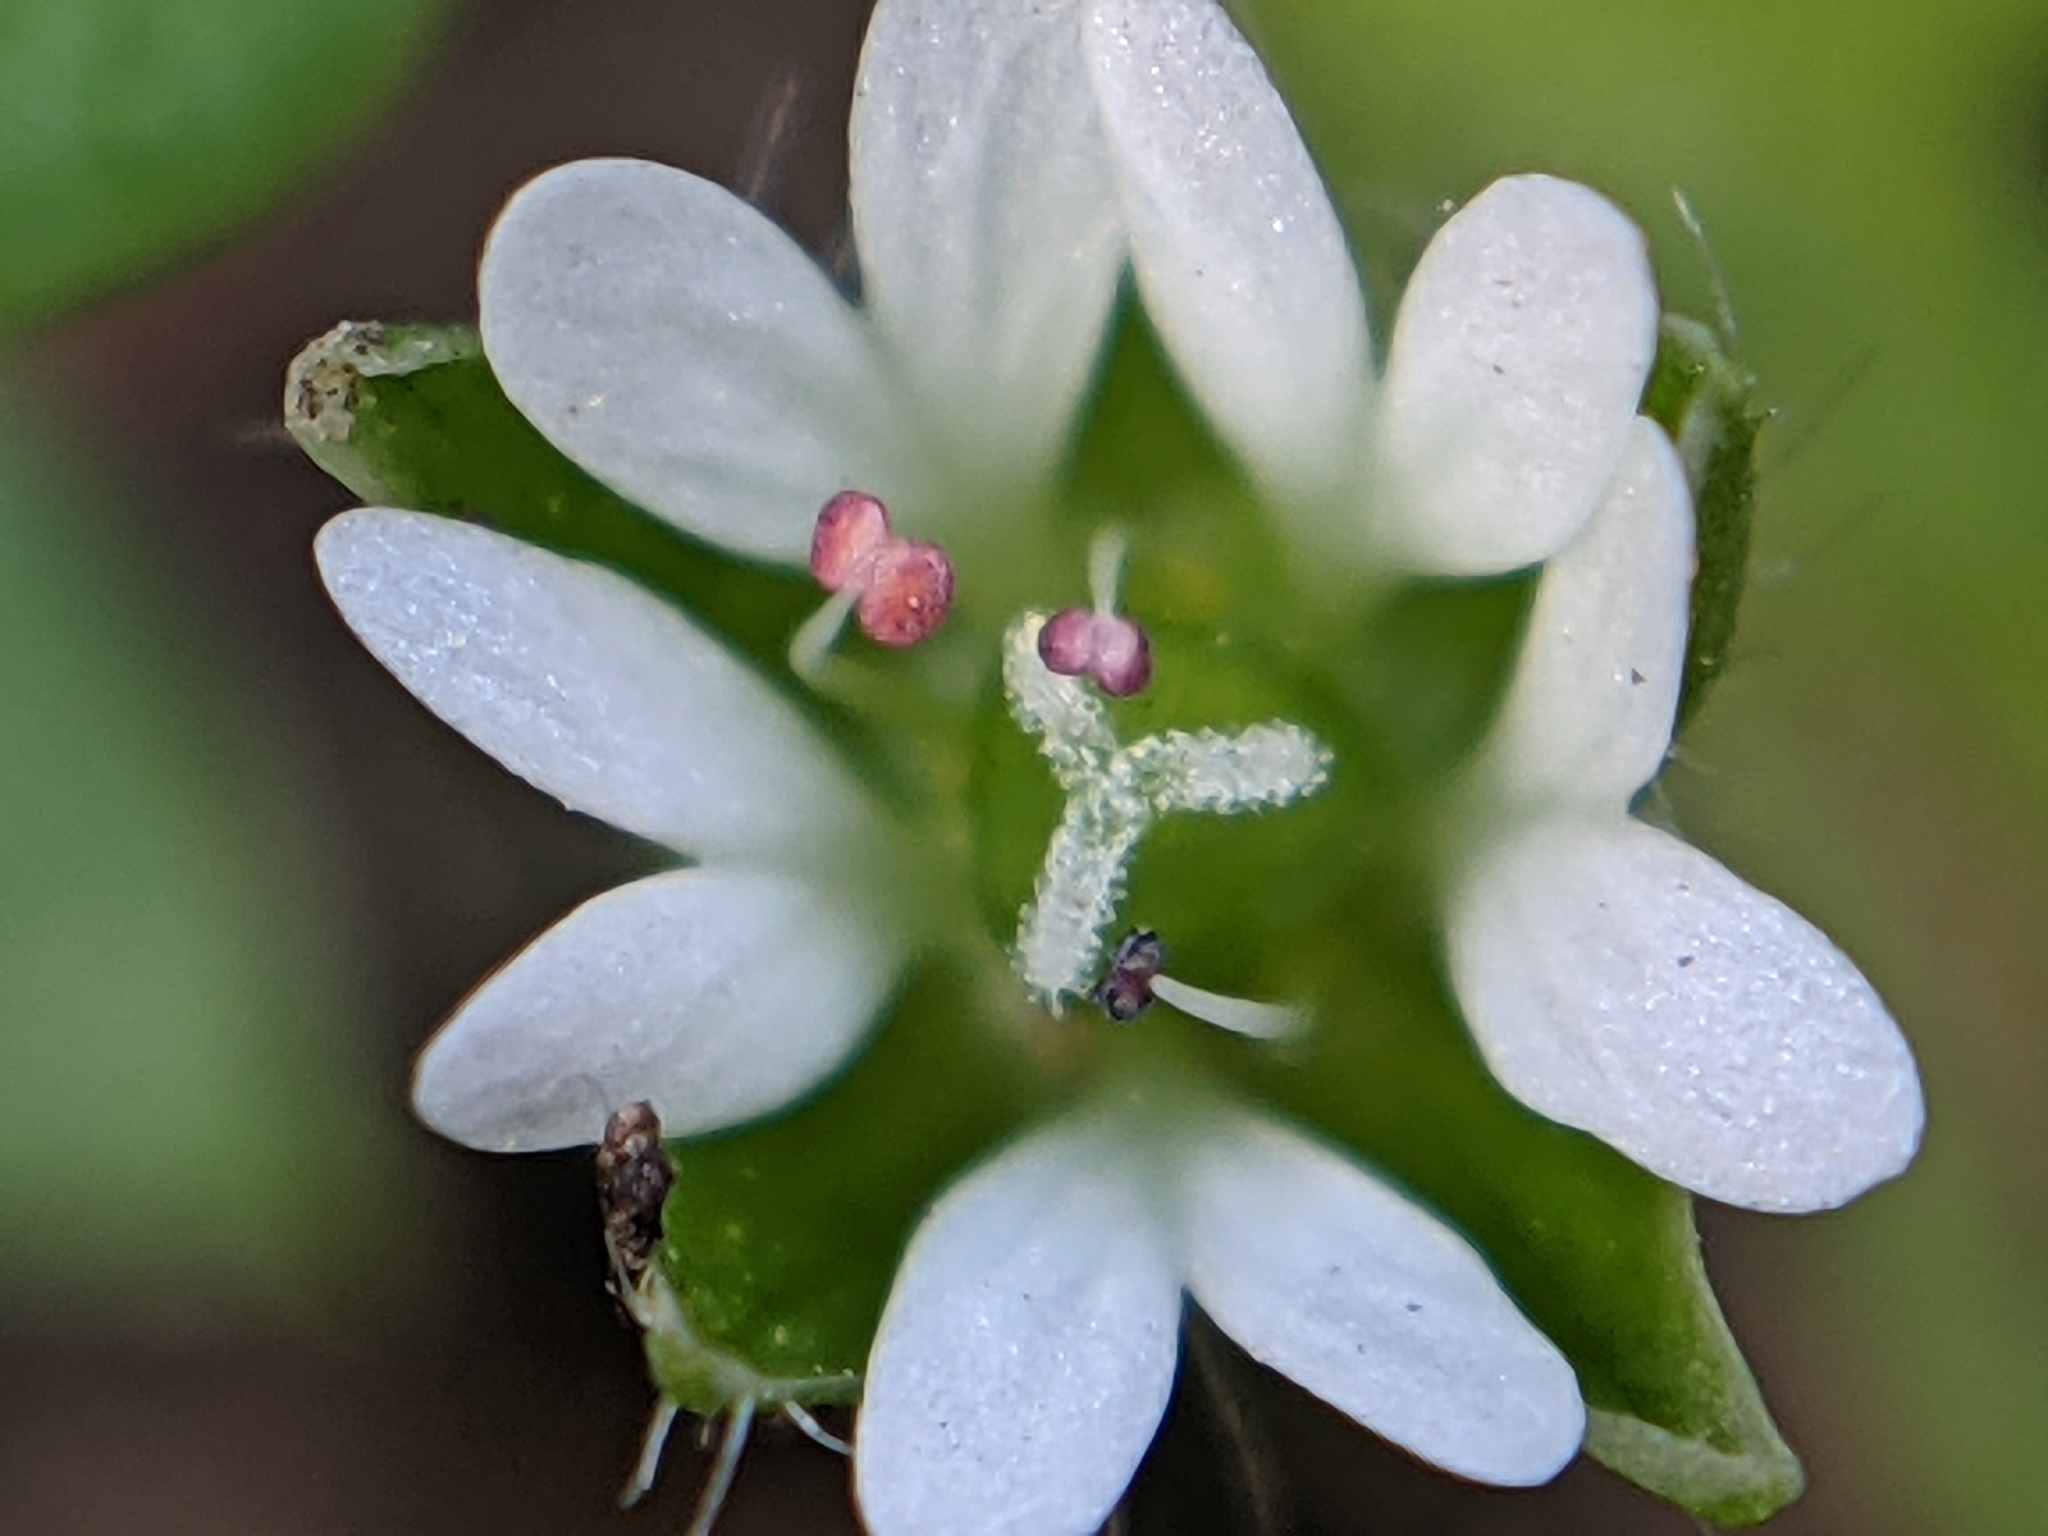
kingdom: Plantae
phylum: Tracheophyta
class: Magnoliopsida
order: Caryophyllales
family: Caryophyllaceae
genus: Stellaria
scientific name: Stellaria media
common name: Common chickweed
